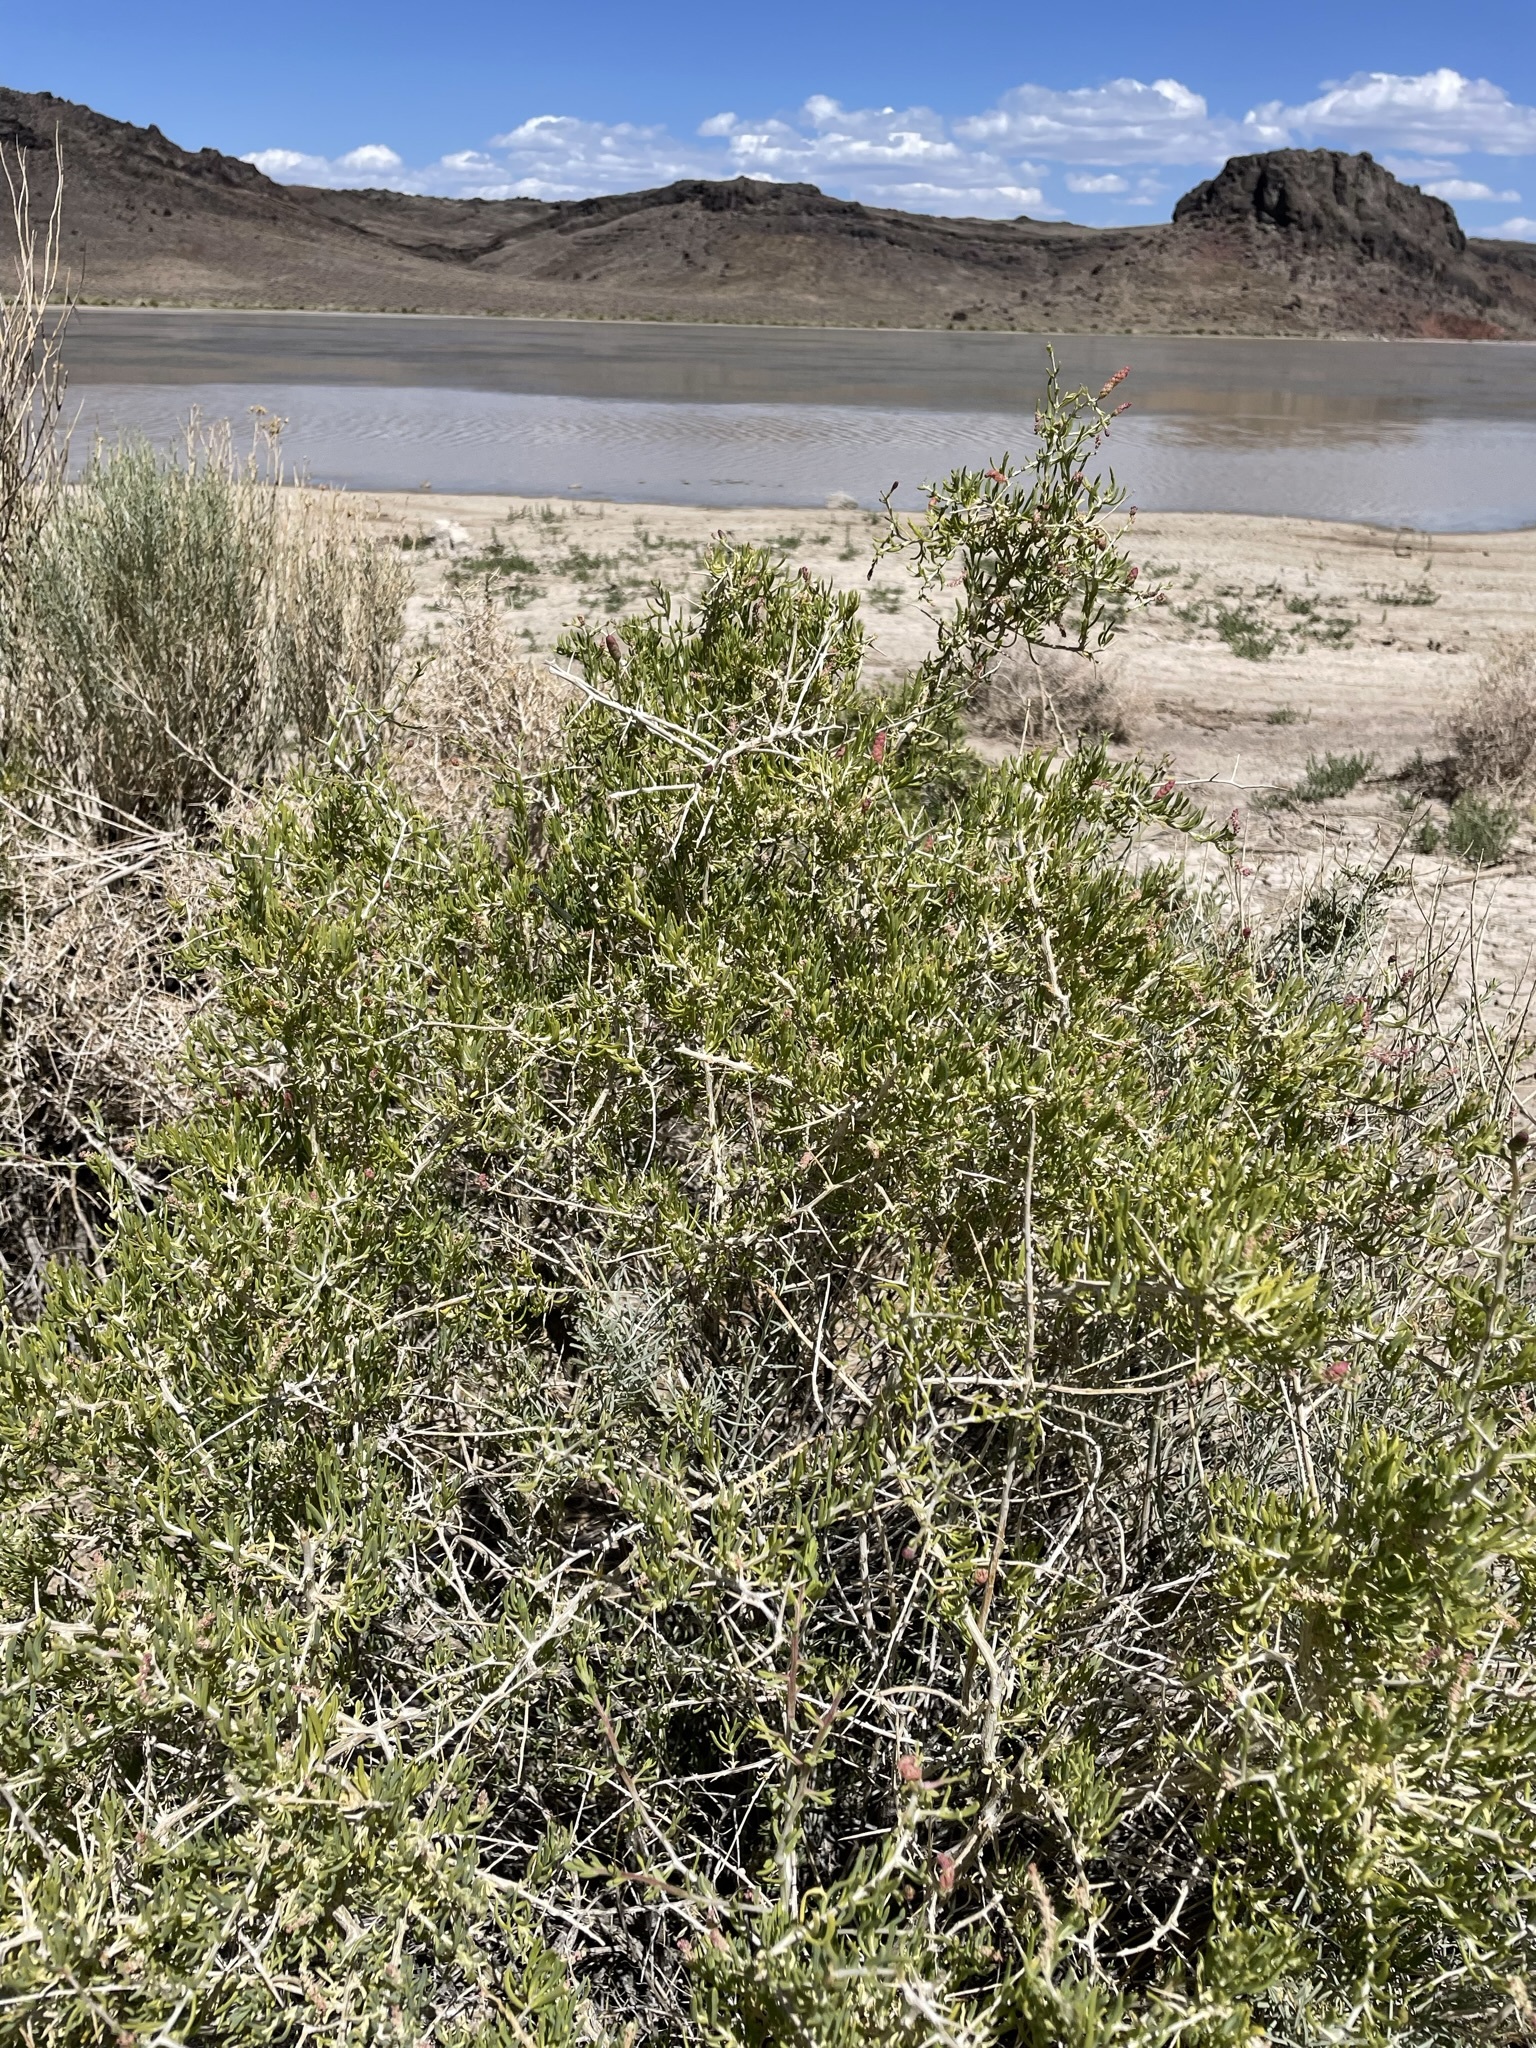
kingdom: Plantae
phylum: Tracheophyta
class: Magnoliopsida
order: Caryophyllales
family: Sarcobataceae
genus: Sarcobatus
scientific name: Sarcobatus vermiculatus
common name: Greasewood
